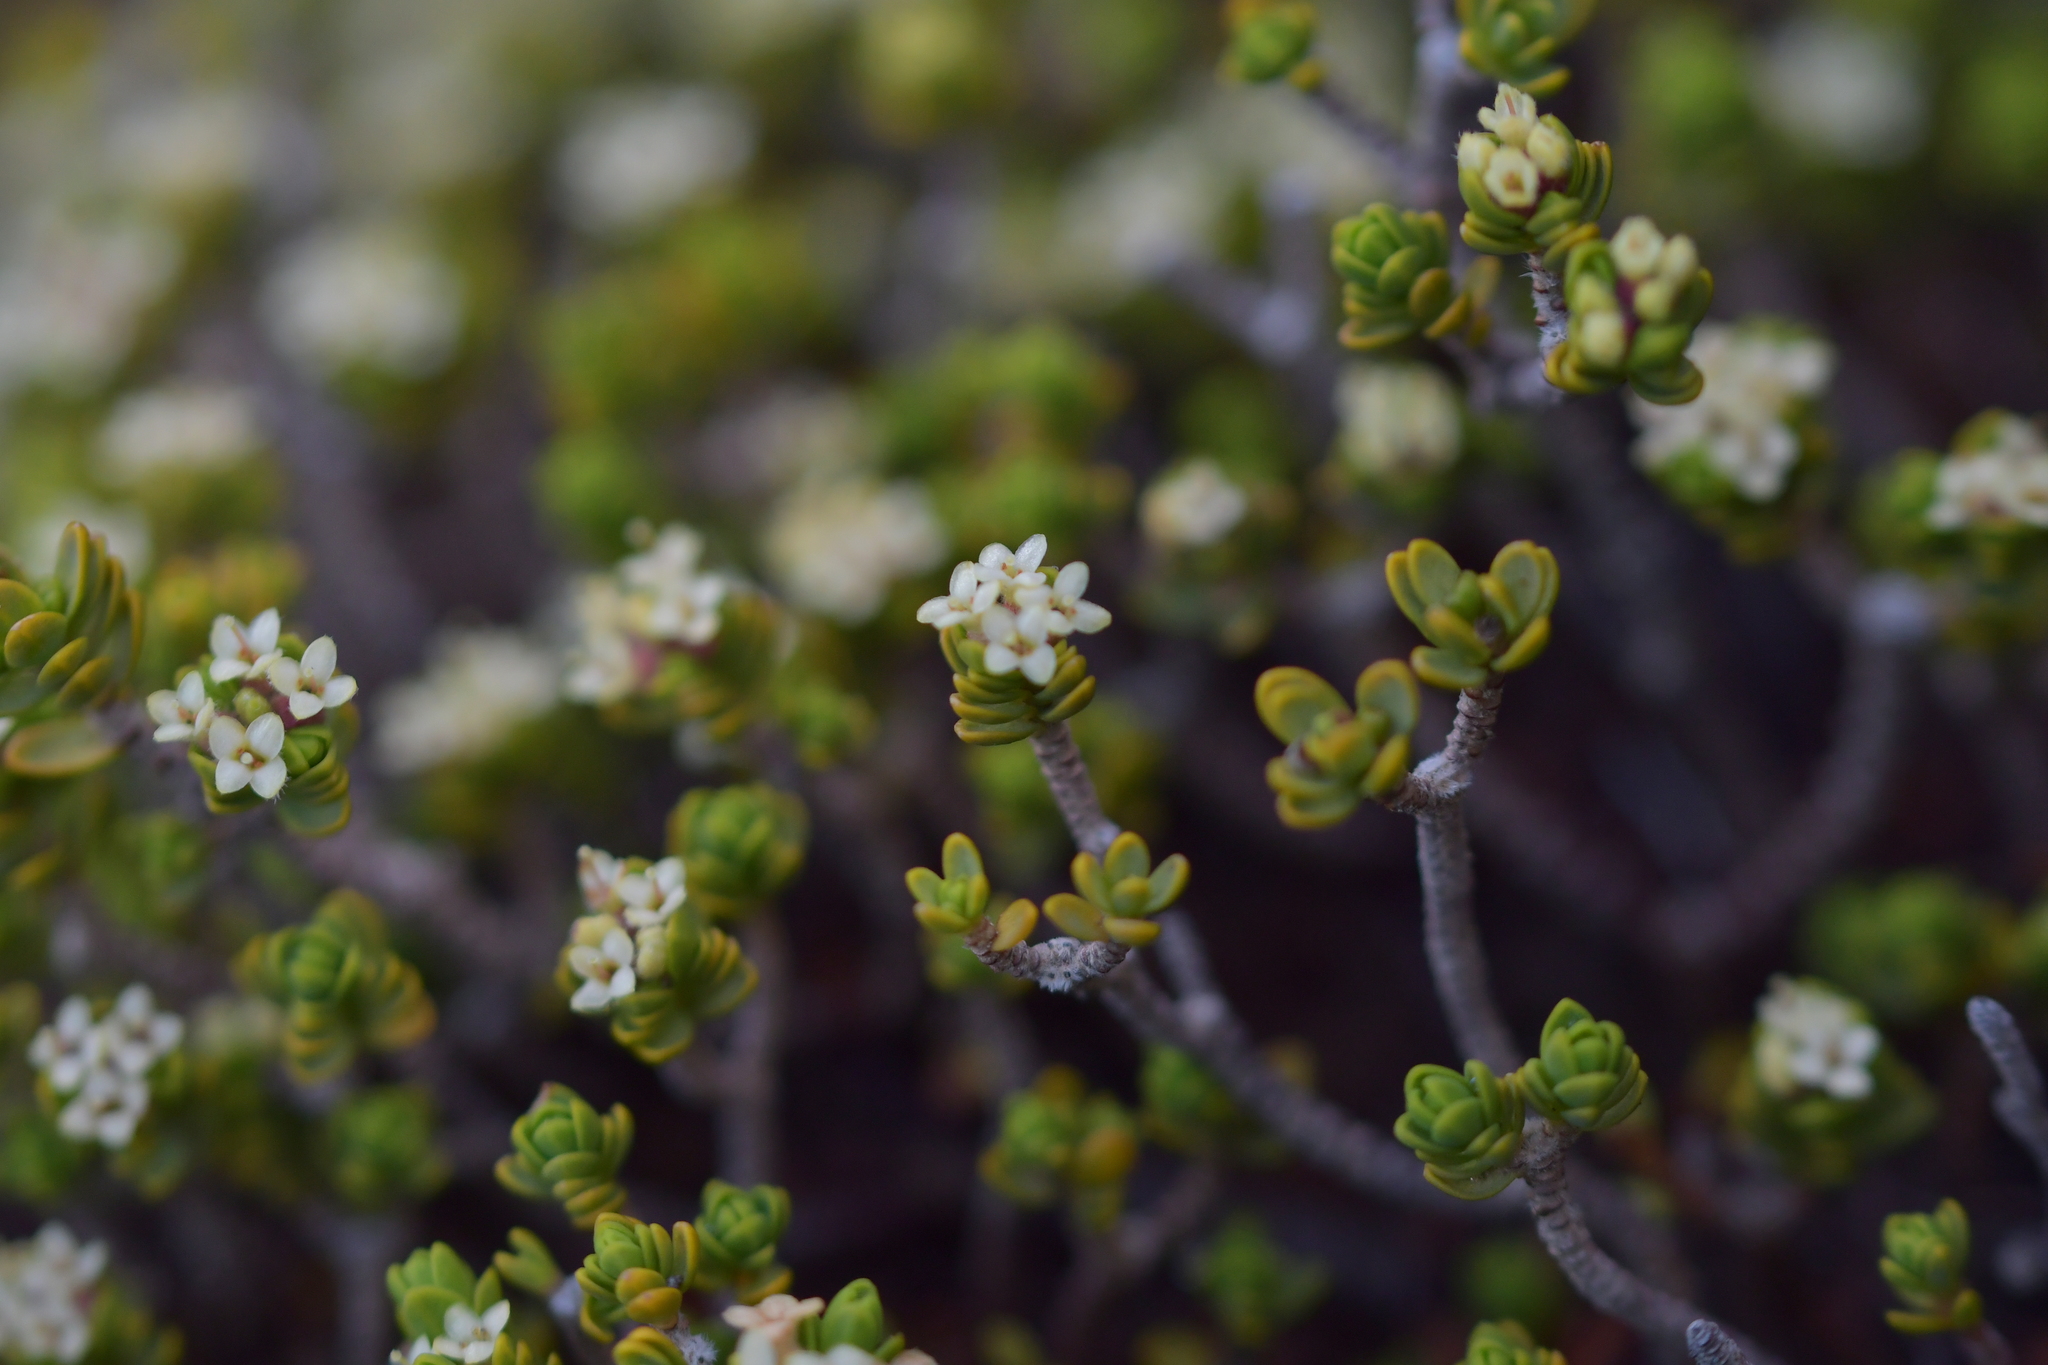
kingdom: Plantae
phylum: Tracheophyta
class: Magnoliopsida
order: Malvales
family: Thymelaeaceae
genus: Pimelea
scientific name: Pimelea microphylla
